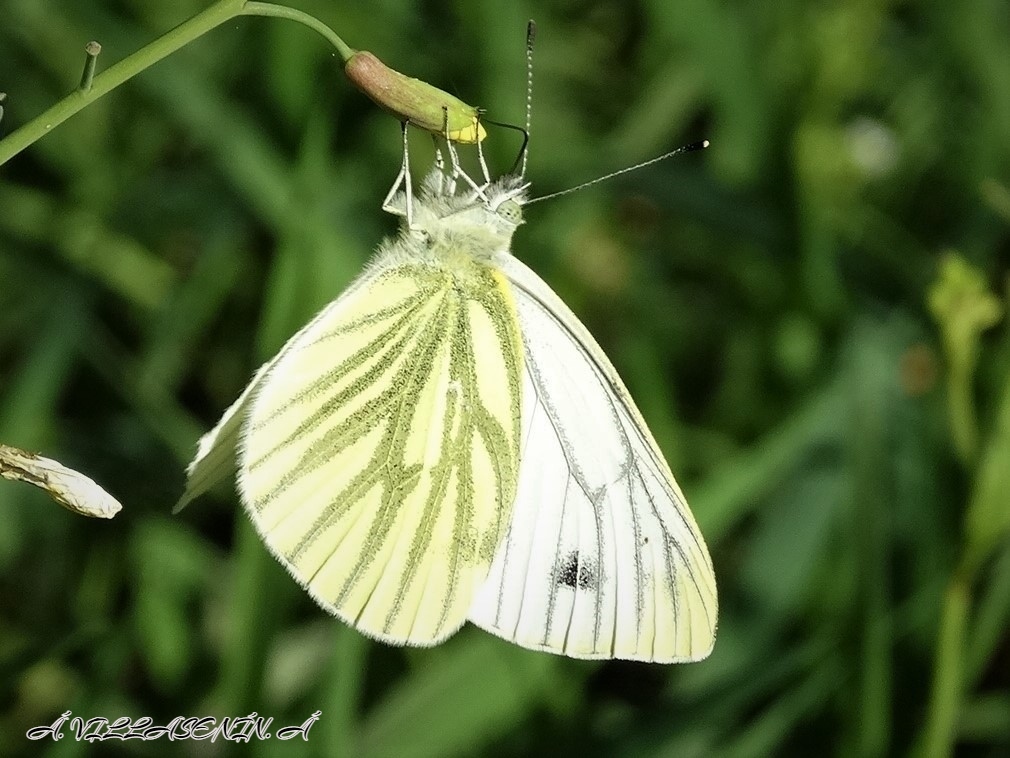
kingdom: Animalia
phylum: Arthropoda
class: Insecta
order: Lepidoptera
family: Pieridae
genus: Pieris
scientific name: Pieris napi
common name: Green-veined white
